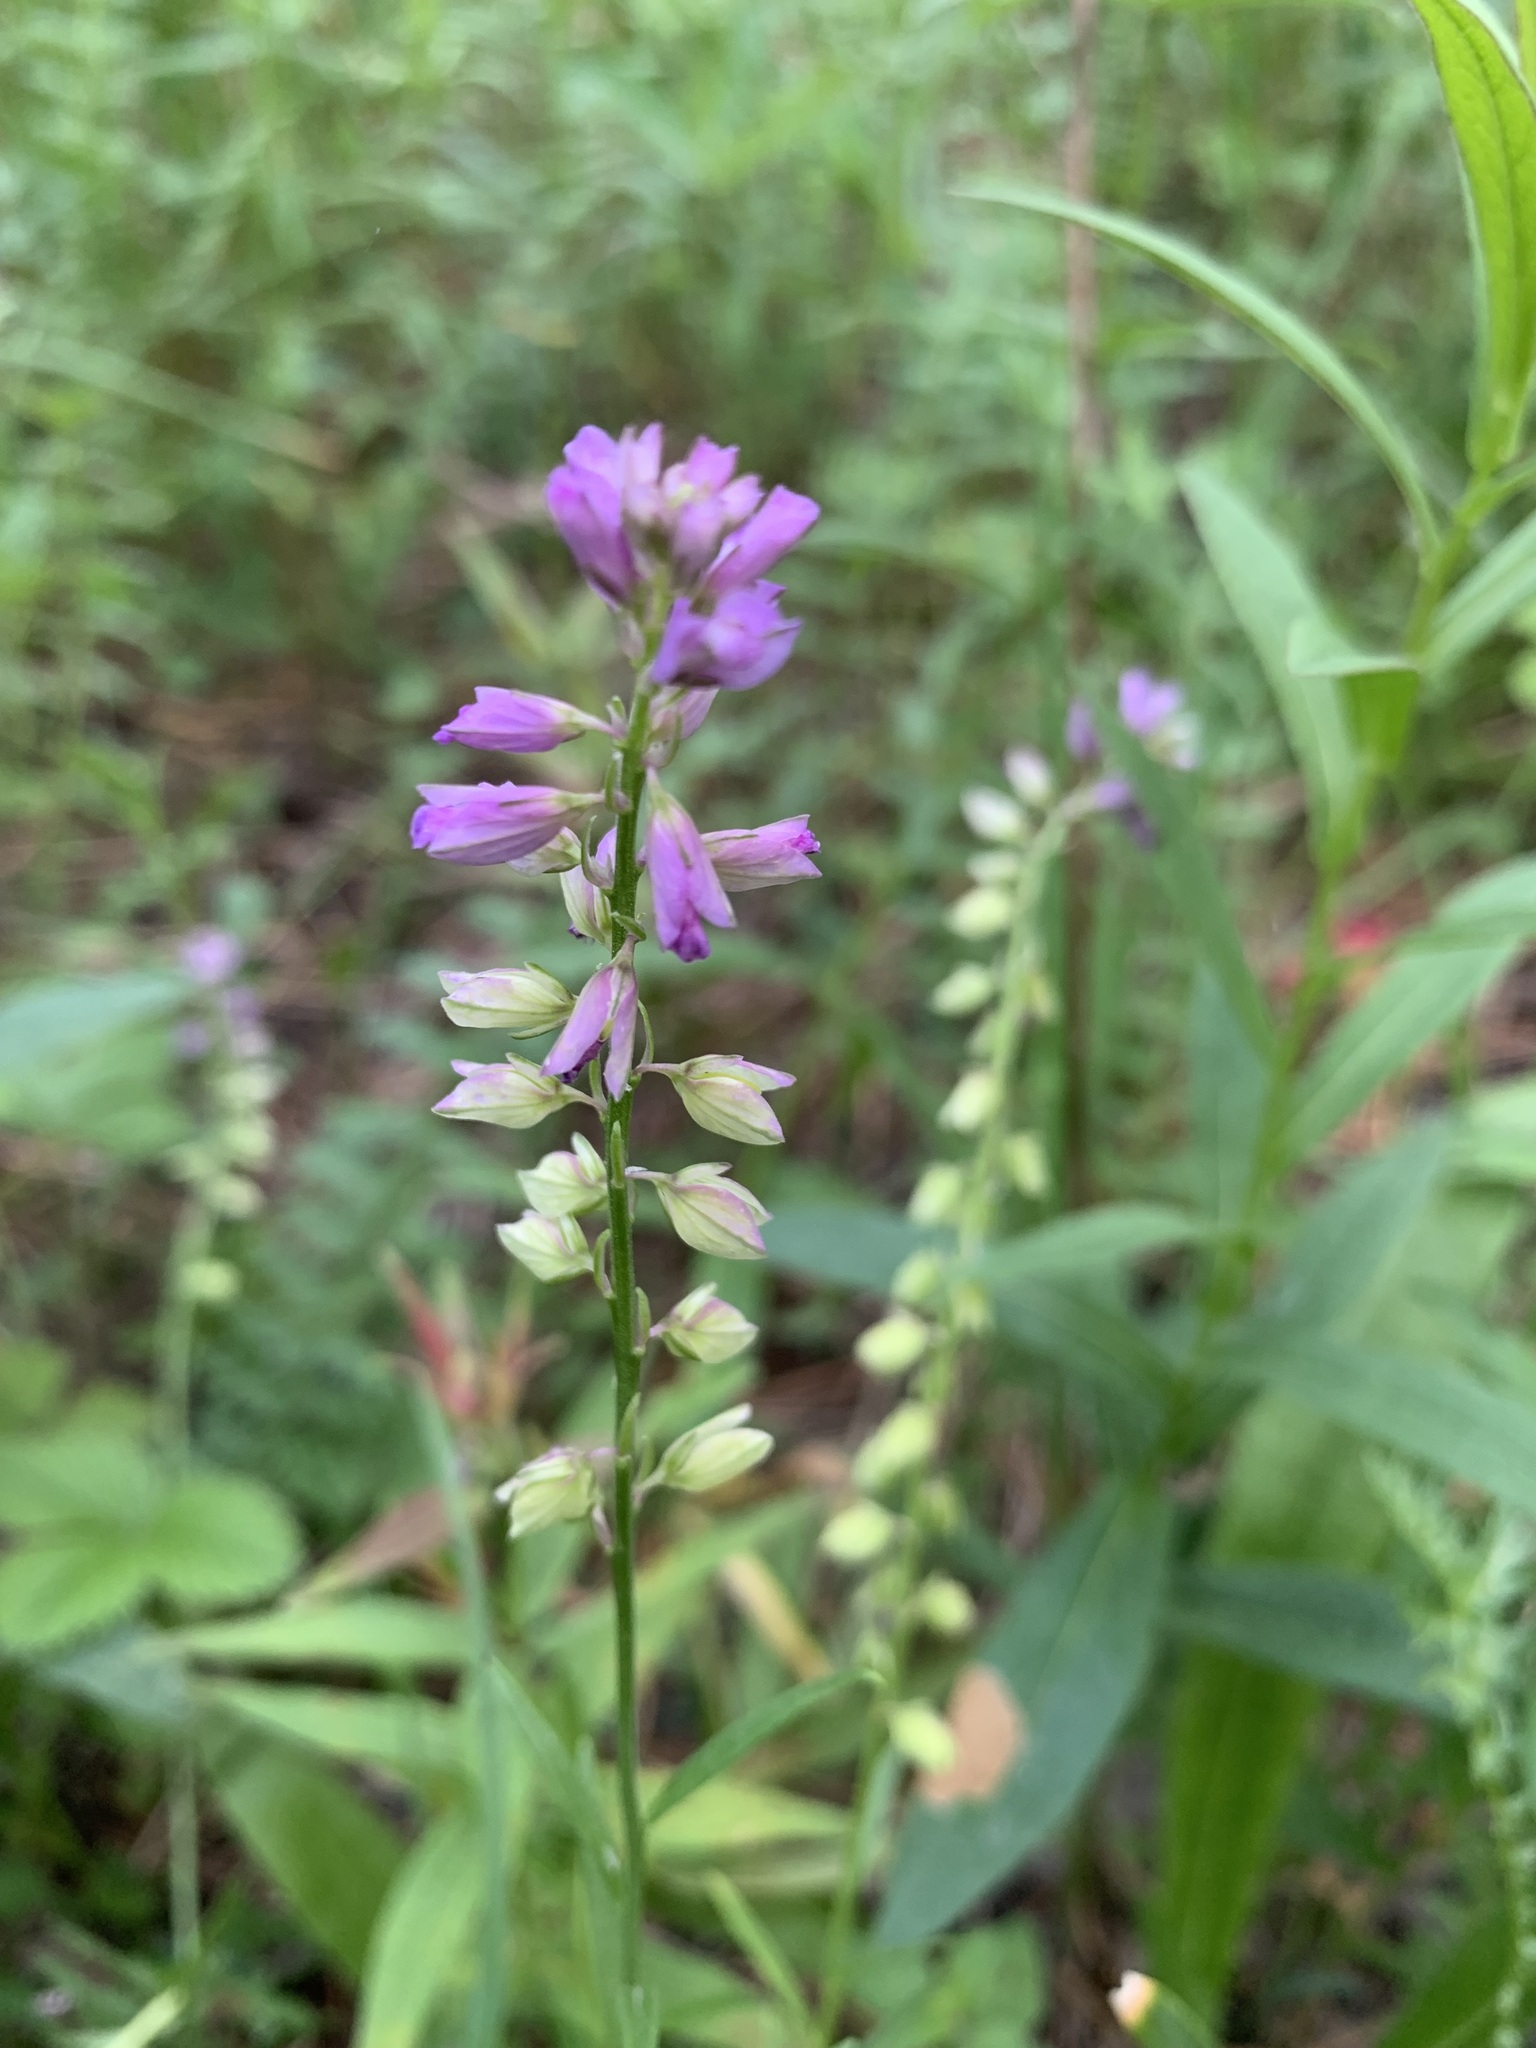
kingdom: Plantae
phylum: Tracheophyta
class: Magnoliopsida
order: Fabales
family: Polygalaceae
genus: Polygala
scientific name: Polygala comosa
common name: Tufted milkwort
